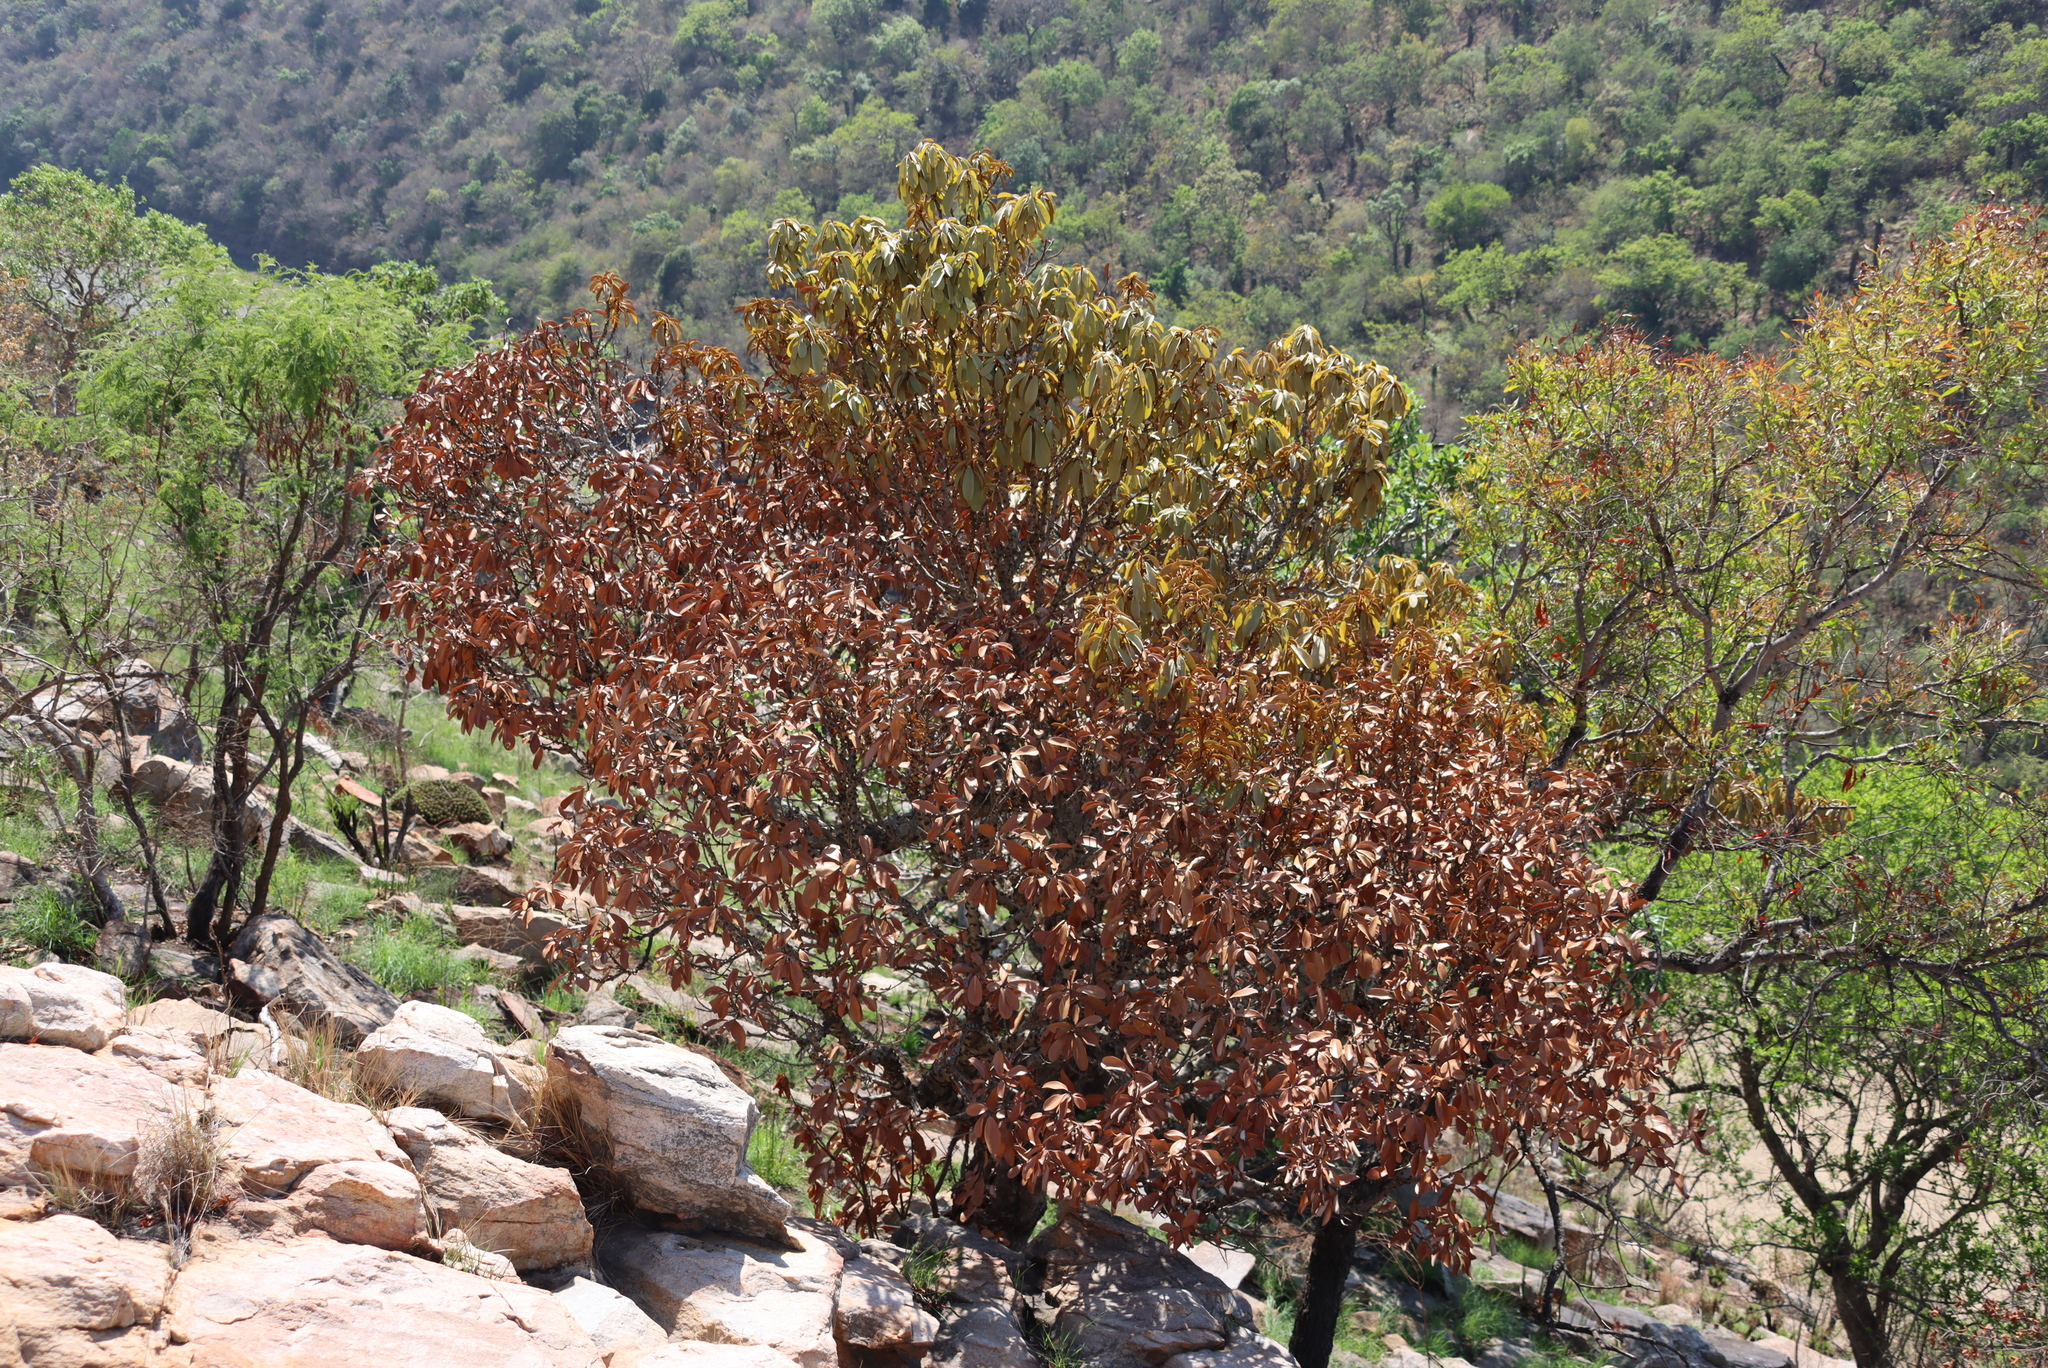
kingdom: Plantae
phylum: Tracheophyta
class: Magnoliopsida
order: Ericales
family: Sapotaceae
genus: Englerophytum
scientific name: Englerophytum magalismontanum
